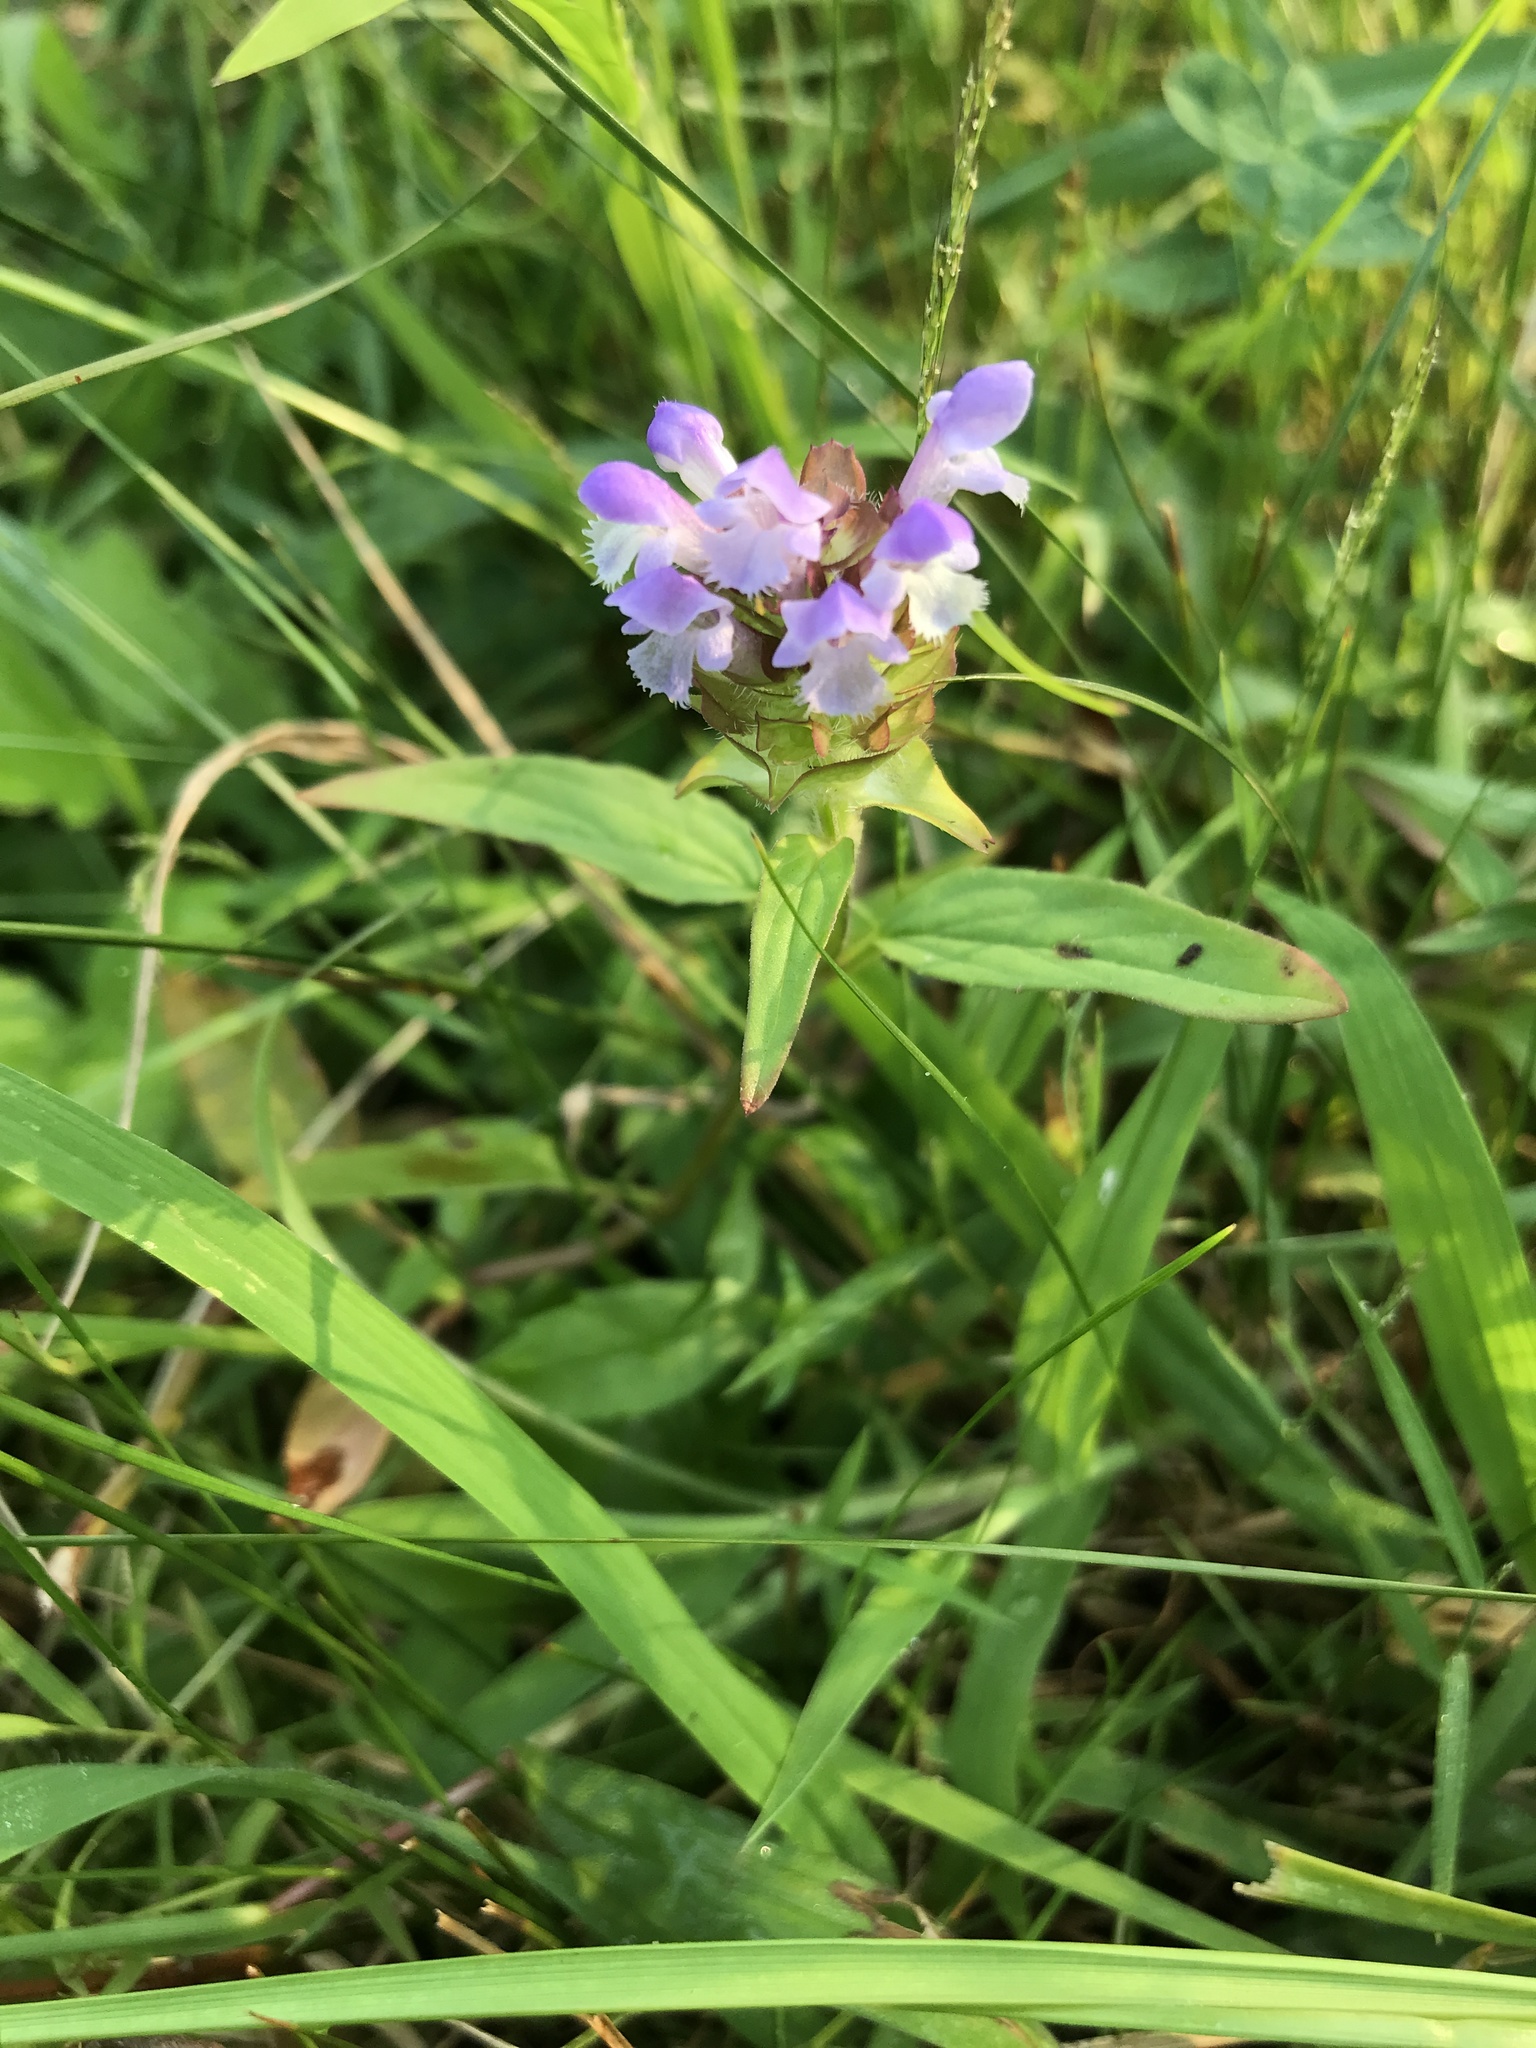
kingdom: Plantae
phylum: Tracheophyta
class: Magnoliopsida
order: Lamiales
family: Lamiaceae
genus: Prunella
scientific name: Prunella vulgaris
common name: Heal-all
